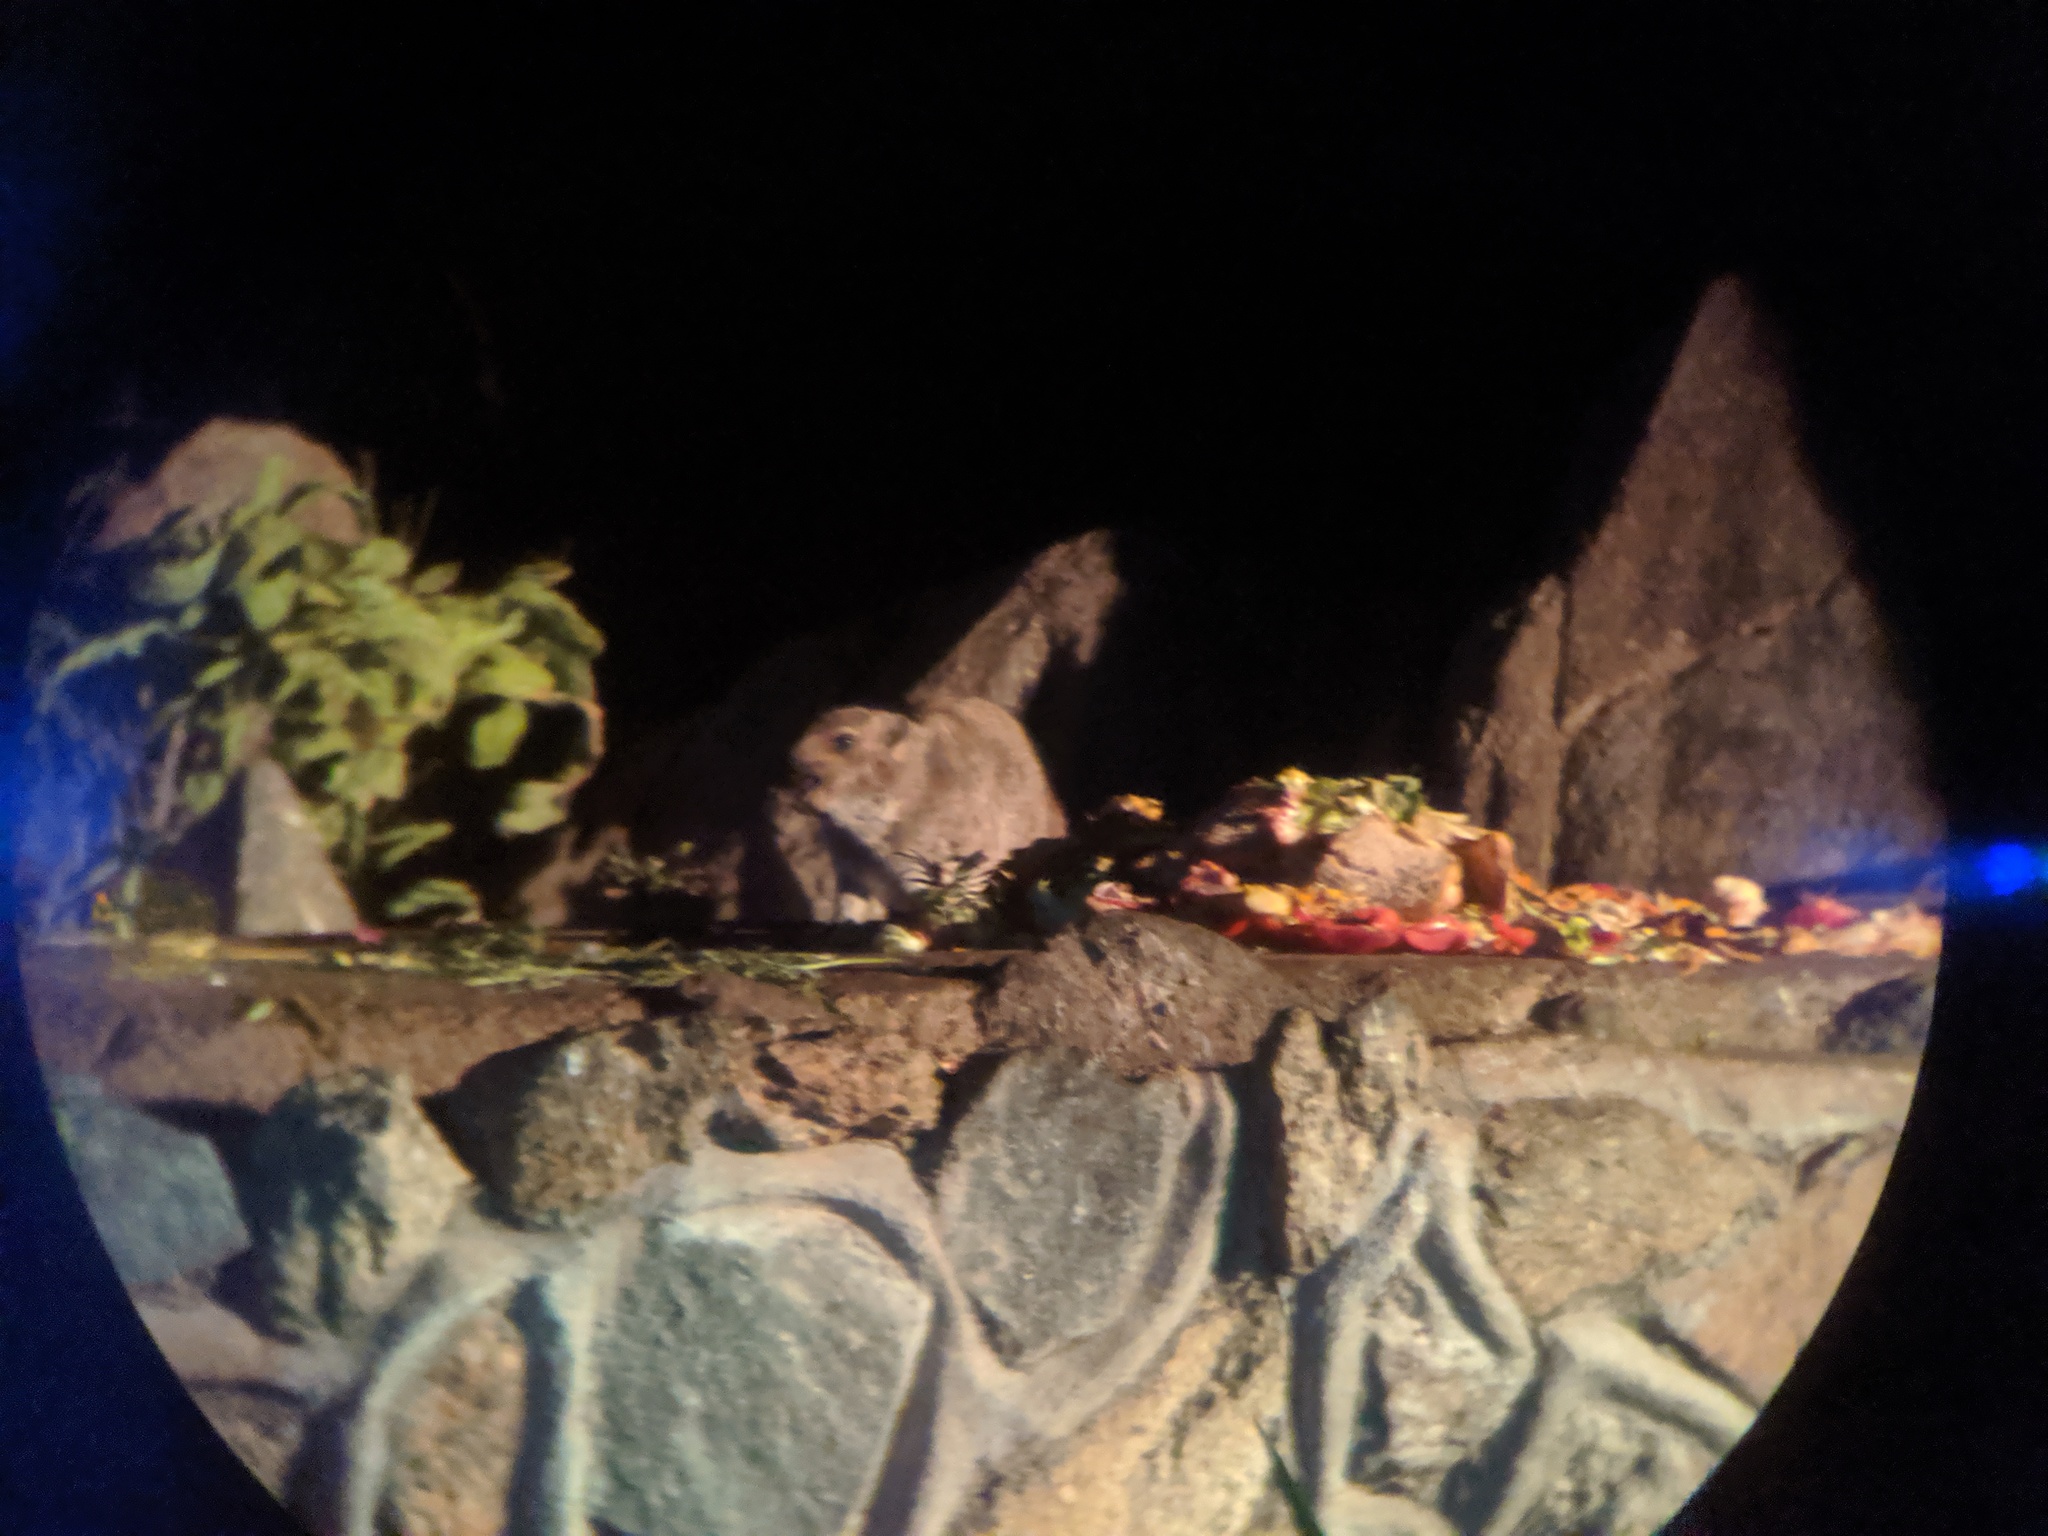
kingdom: Animalia
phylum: Chordata
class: Mammalia
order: Hyracoidea
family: Procaviidae
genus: Procavia
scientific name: Procavia capensis
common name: Rock hyrax
